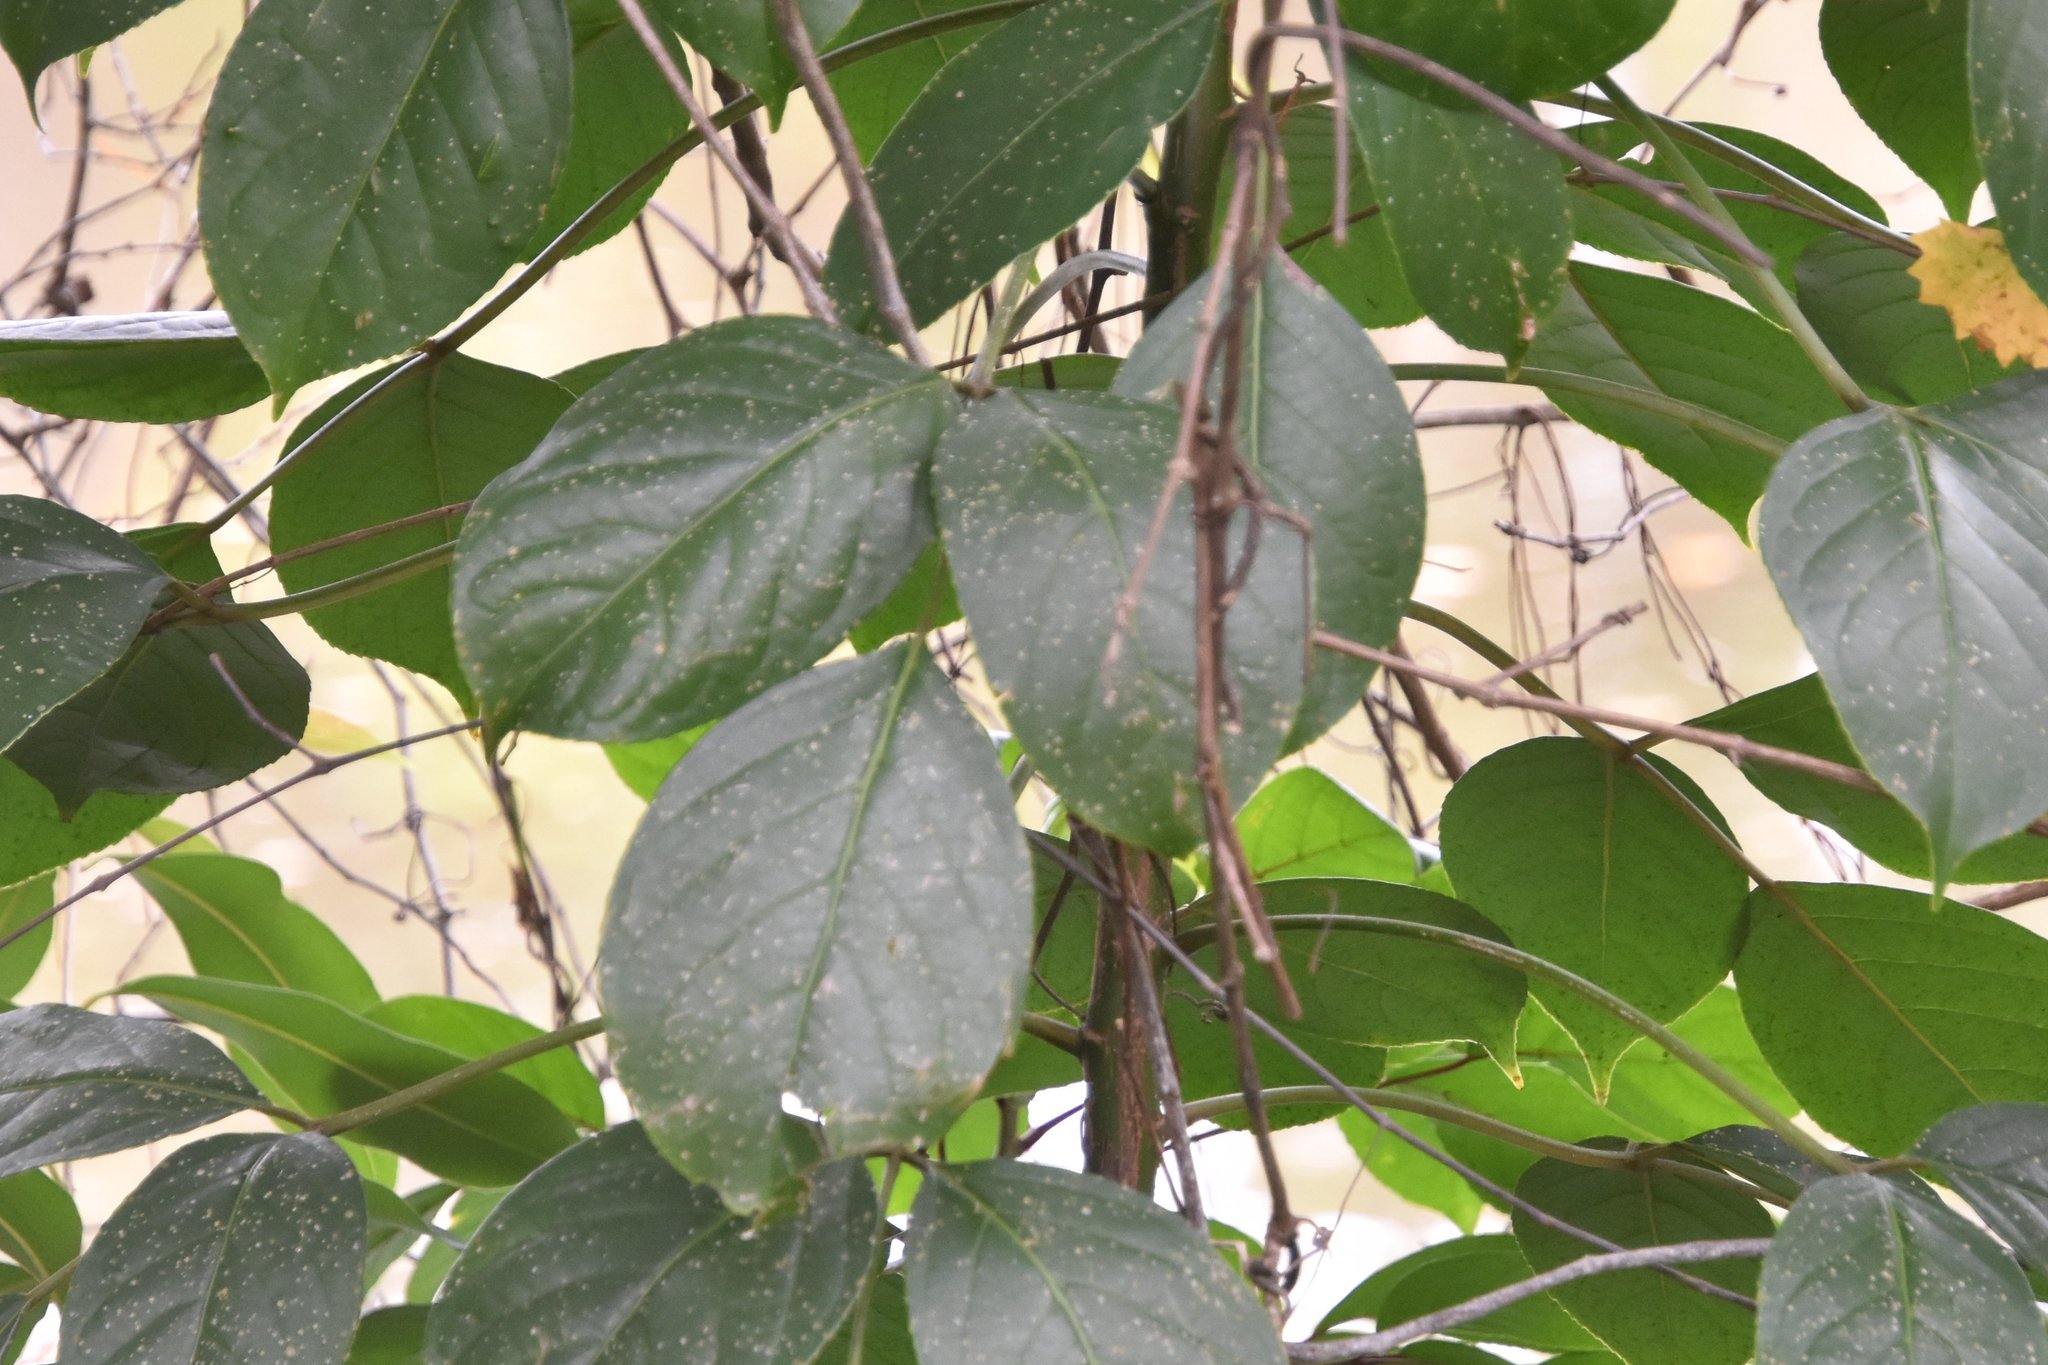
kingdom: Plantae
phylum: Tracheophyta
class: Magnoliopsida
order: Malpighiales
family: Phyllanthaceae
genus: Bischofia
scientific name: Bischofia javanica
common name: Javanese bishopwood
